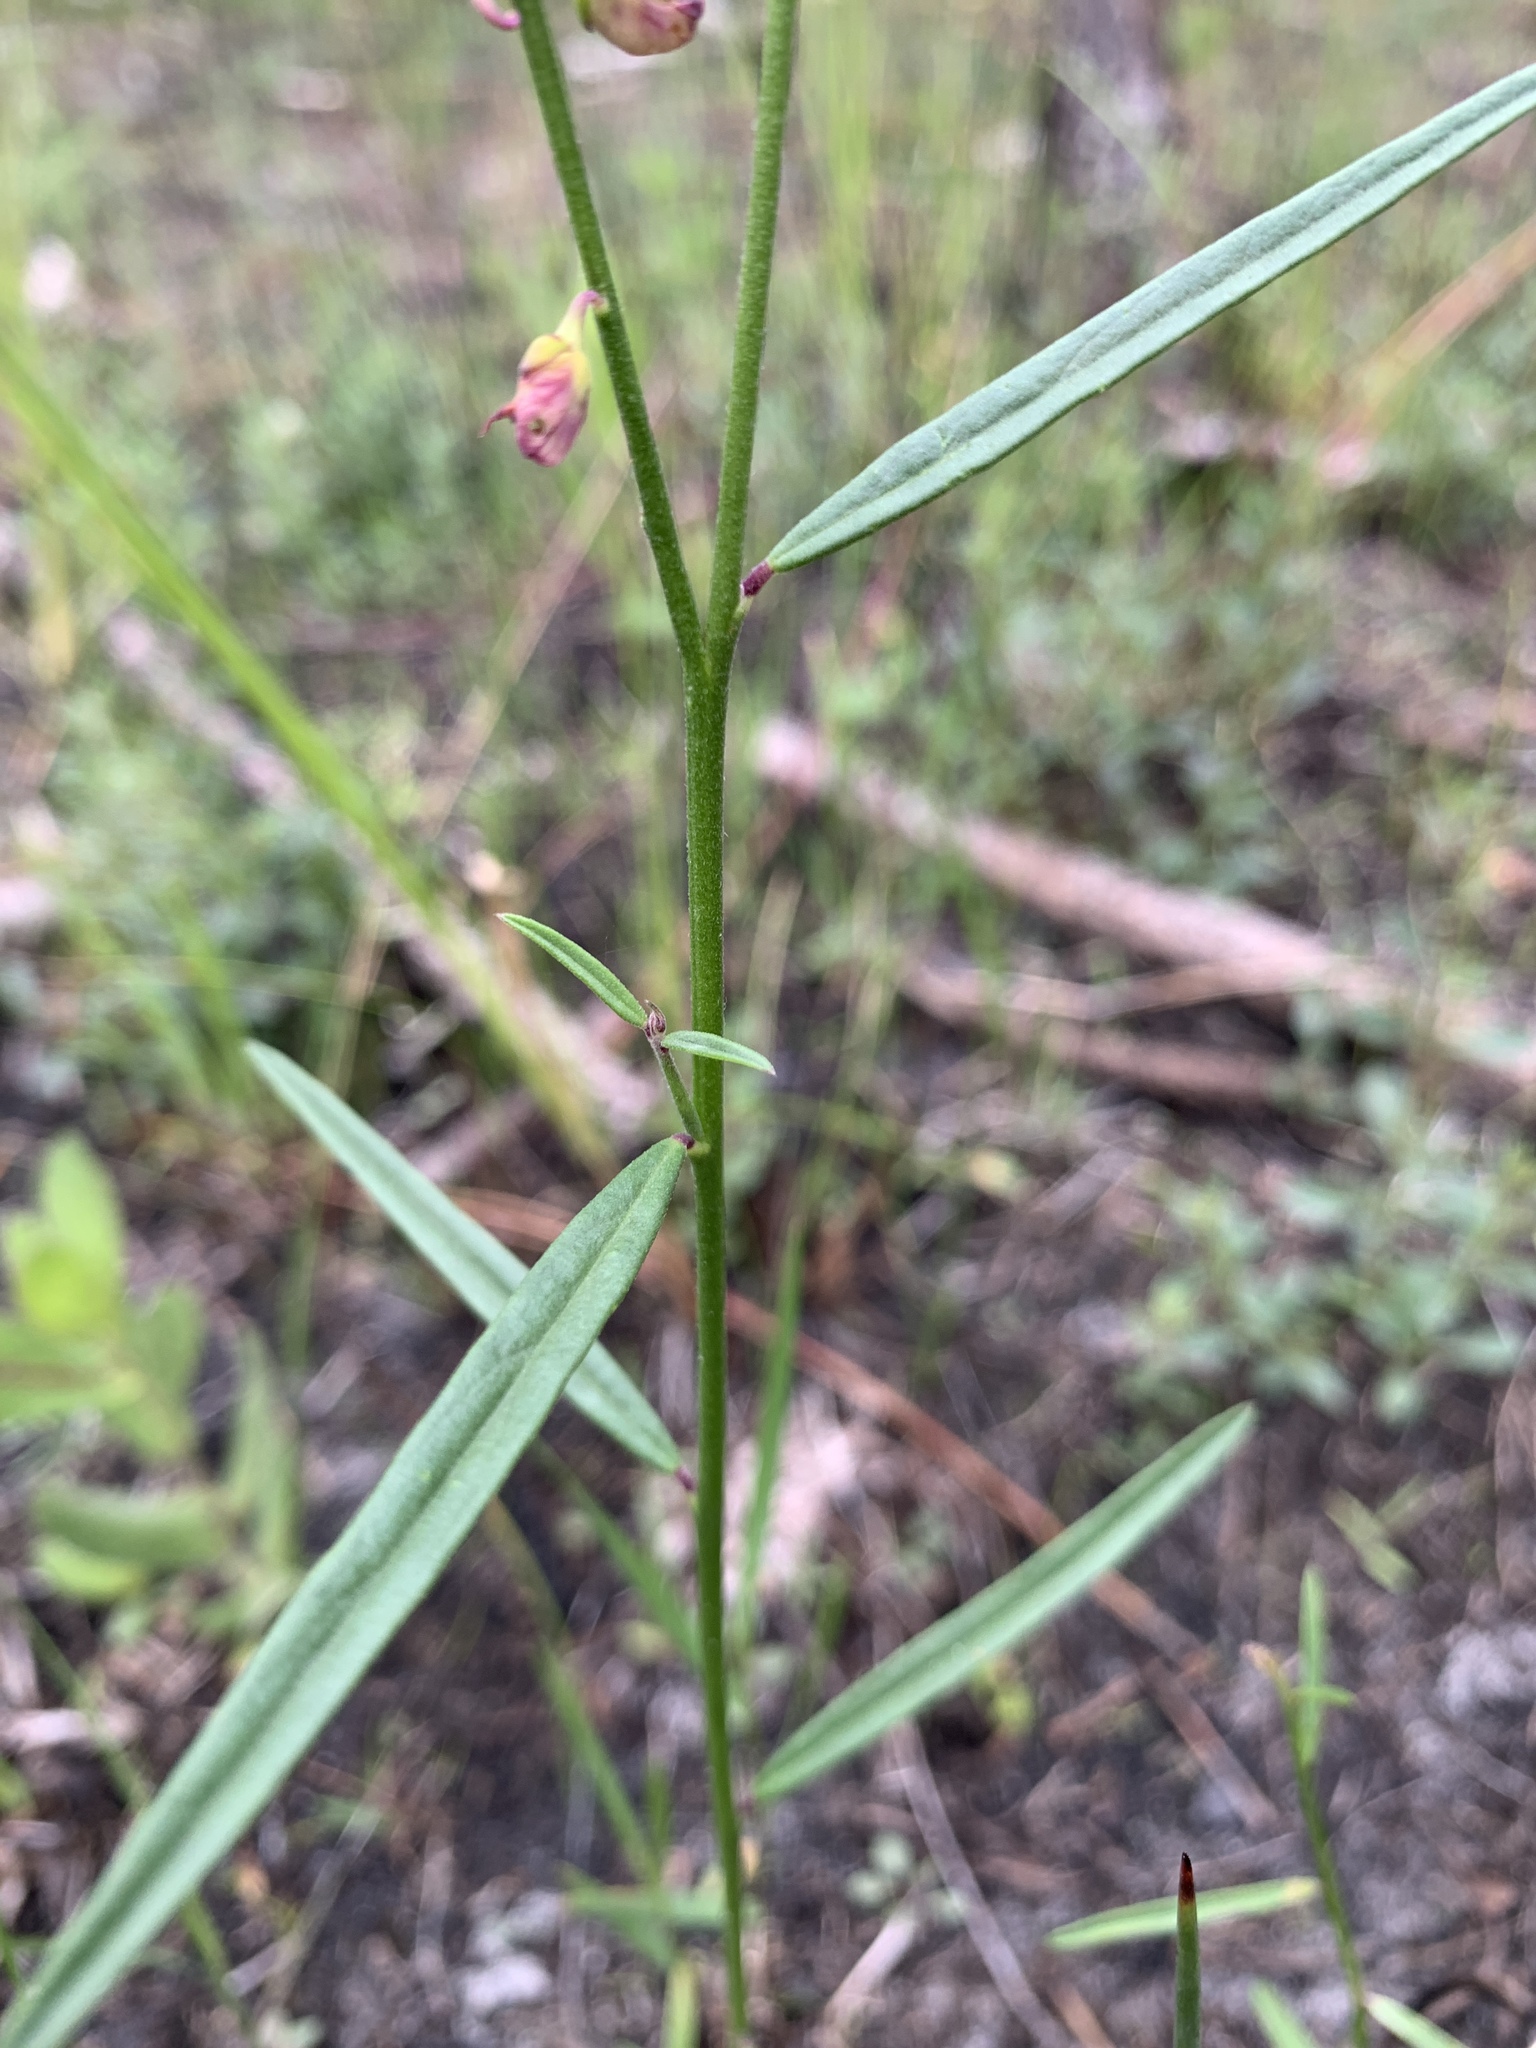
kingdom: Plantae
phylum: Tracheophyta
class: Magnoliopsida
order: Fabales
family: Polygalaceae
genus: Asemeia
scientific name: Asemeia grandiflora
